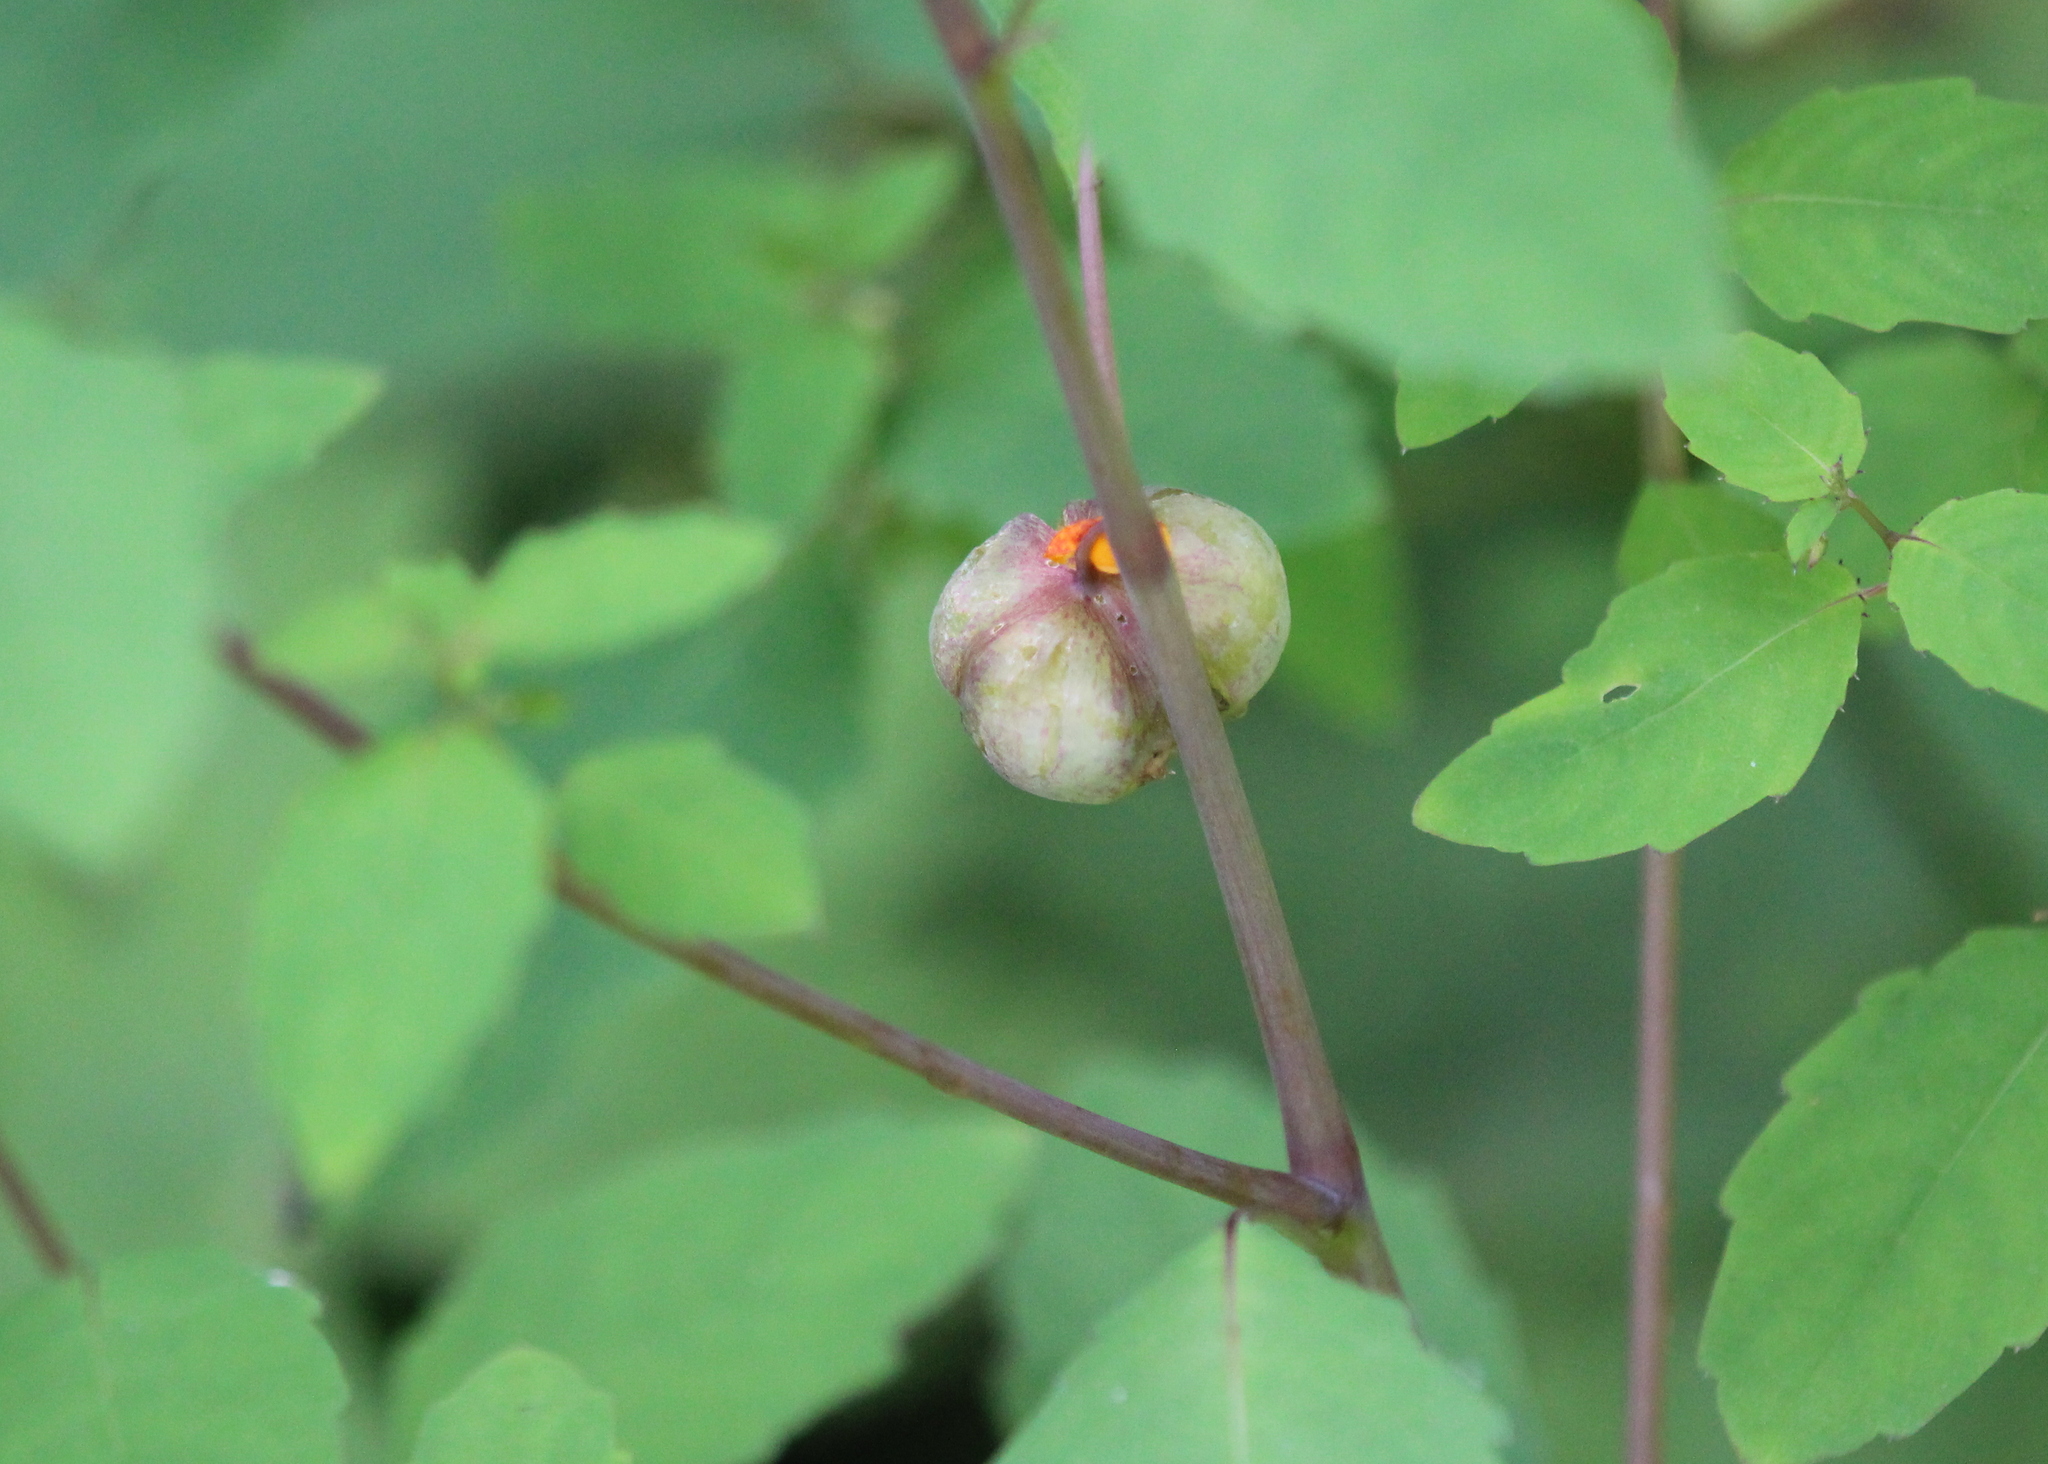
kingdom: Animalia
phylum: Arthropoda
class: Insecta
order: Diptera
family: Cecidomyiidae
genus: Schizomyia
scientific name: Schizomyia impatientis
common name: Jewelweed gall midge
